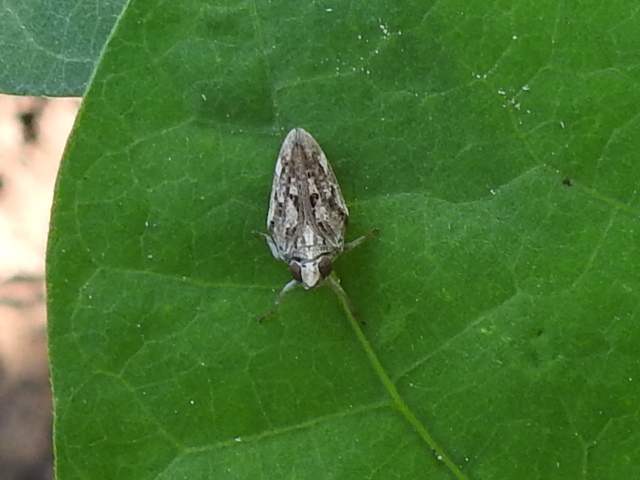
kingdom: Animalia
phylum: Arthropoda
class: Insecta
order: Hemiptera
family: Issidae
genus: Fowlerium
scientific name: Fowlerium acutum
